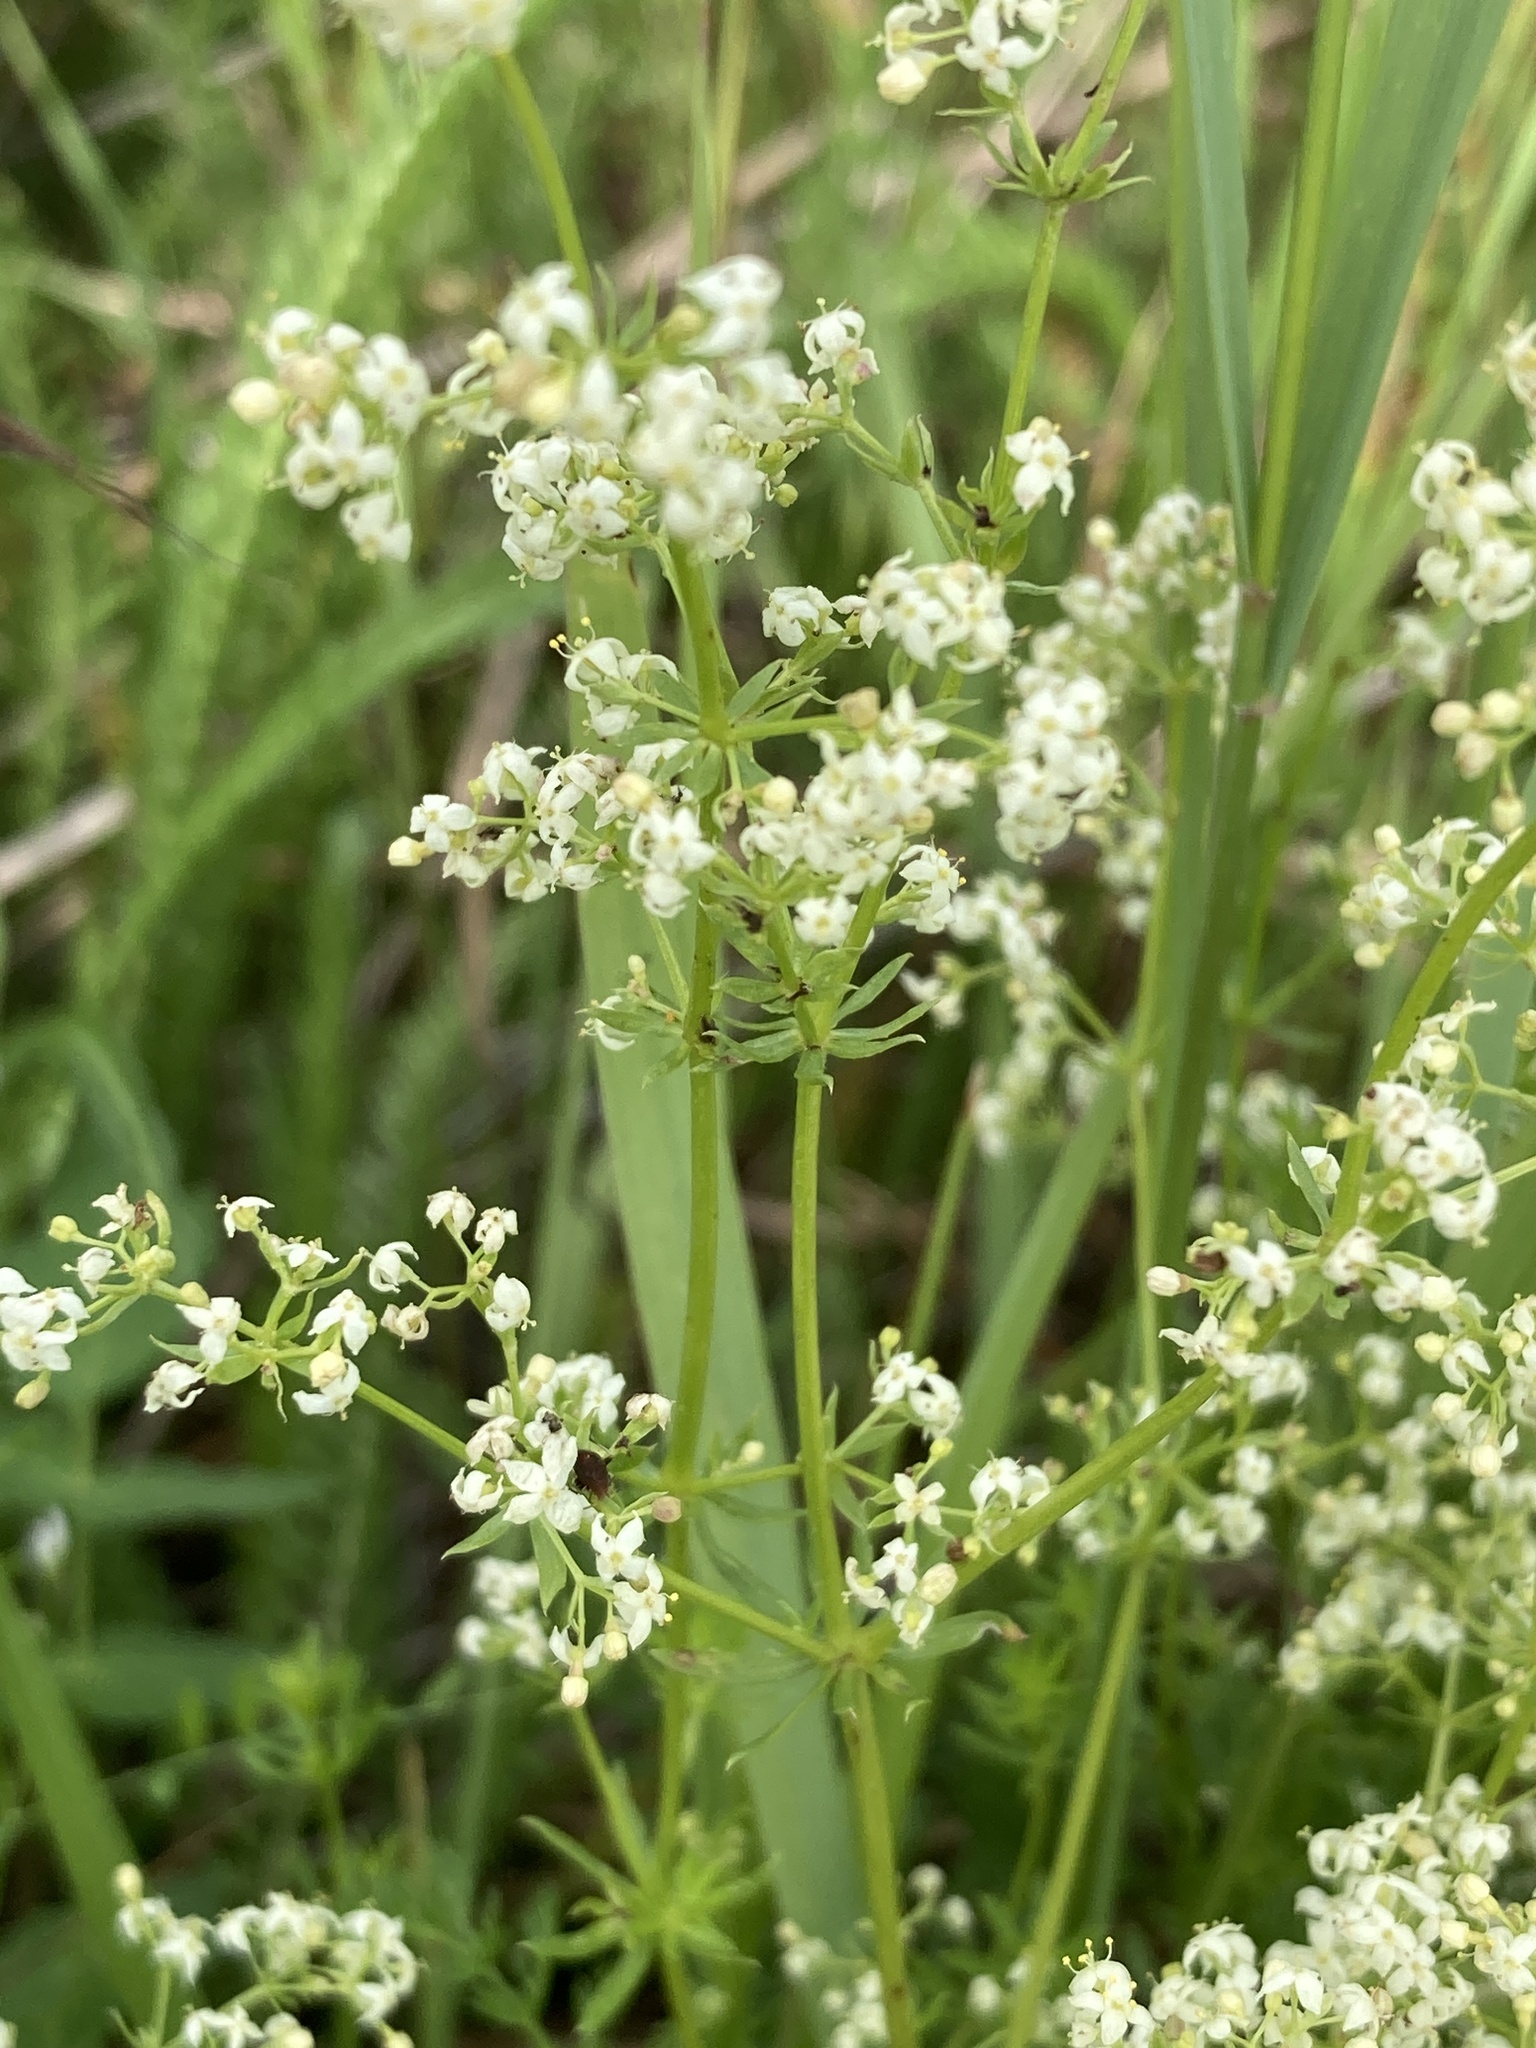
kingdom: Plantae
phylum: Tracheophyta
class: Magnoliopsida
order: Gentianales
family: Rubiaceae
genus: Galium
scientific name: Galium mollugo
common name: Hedge bedstraw
